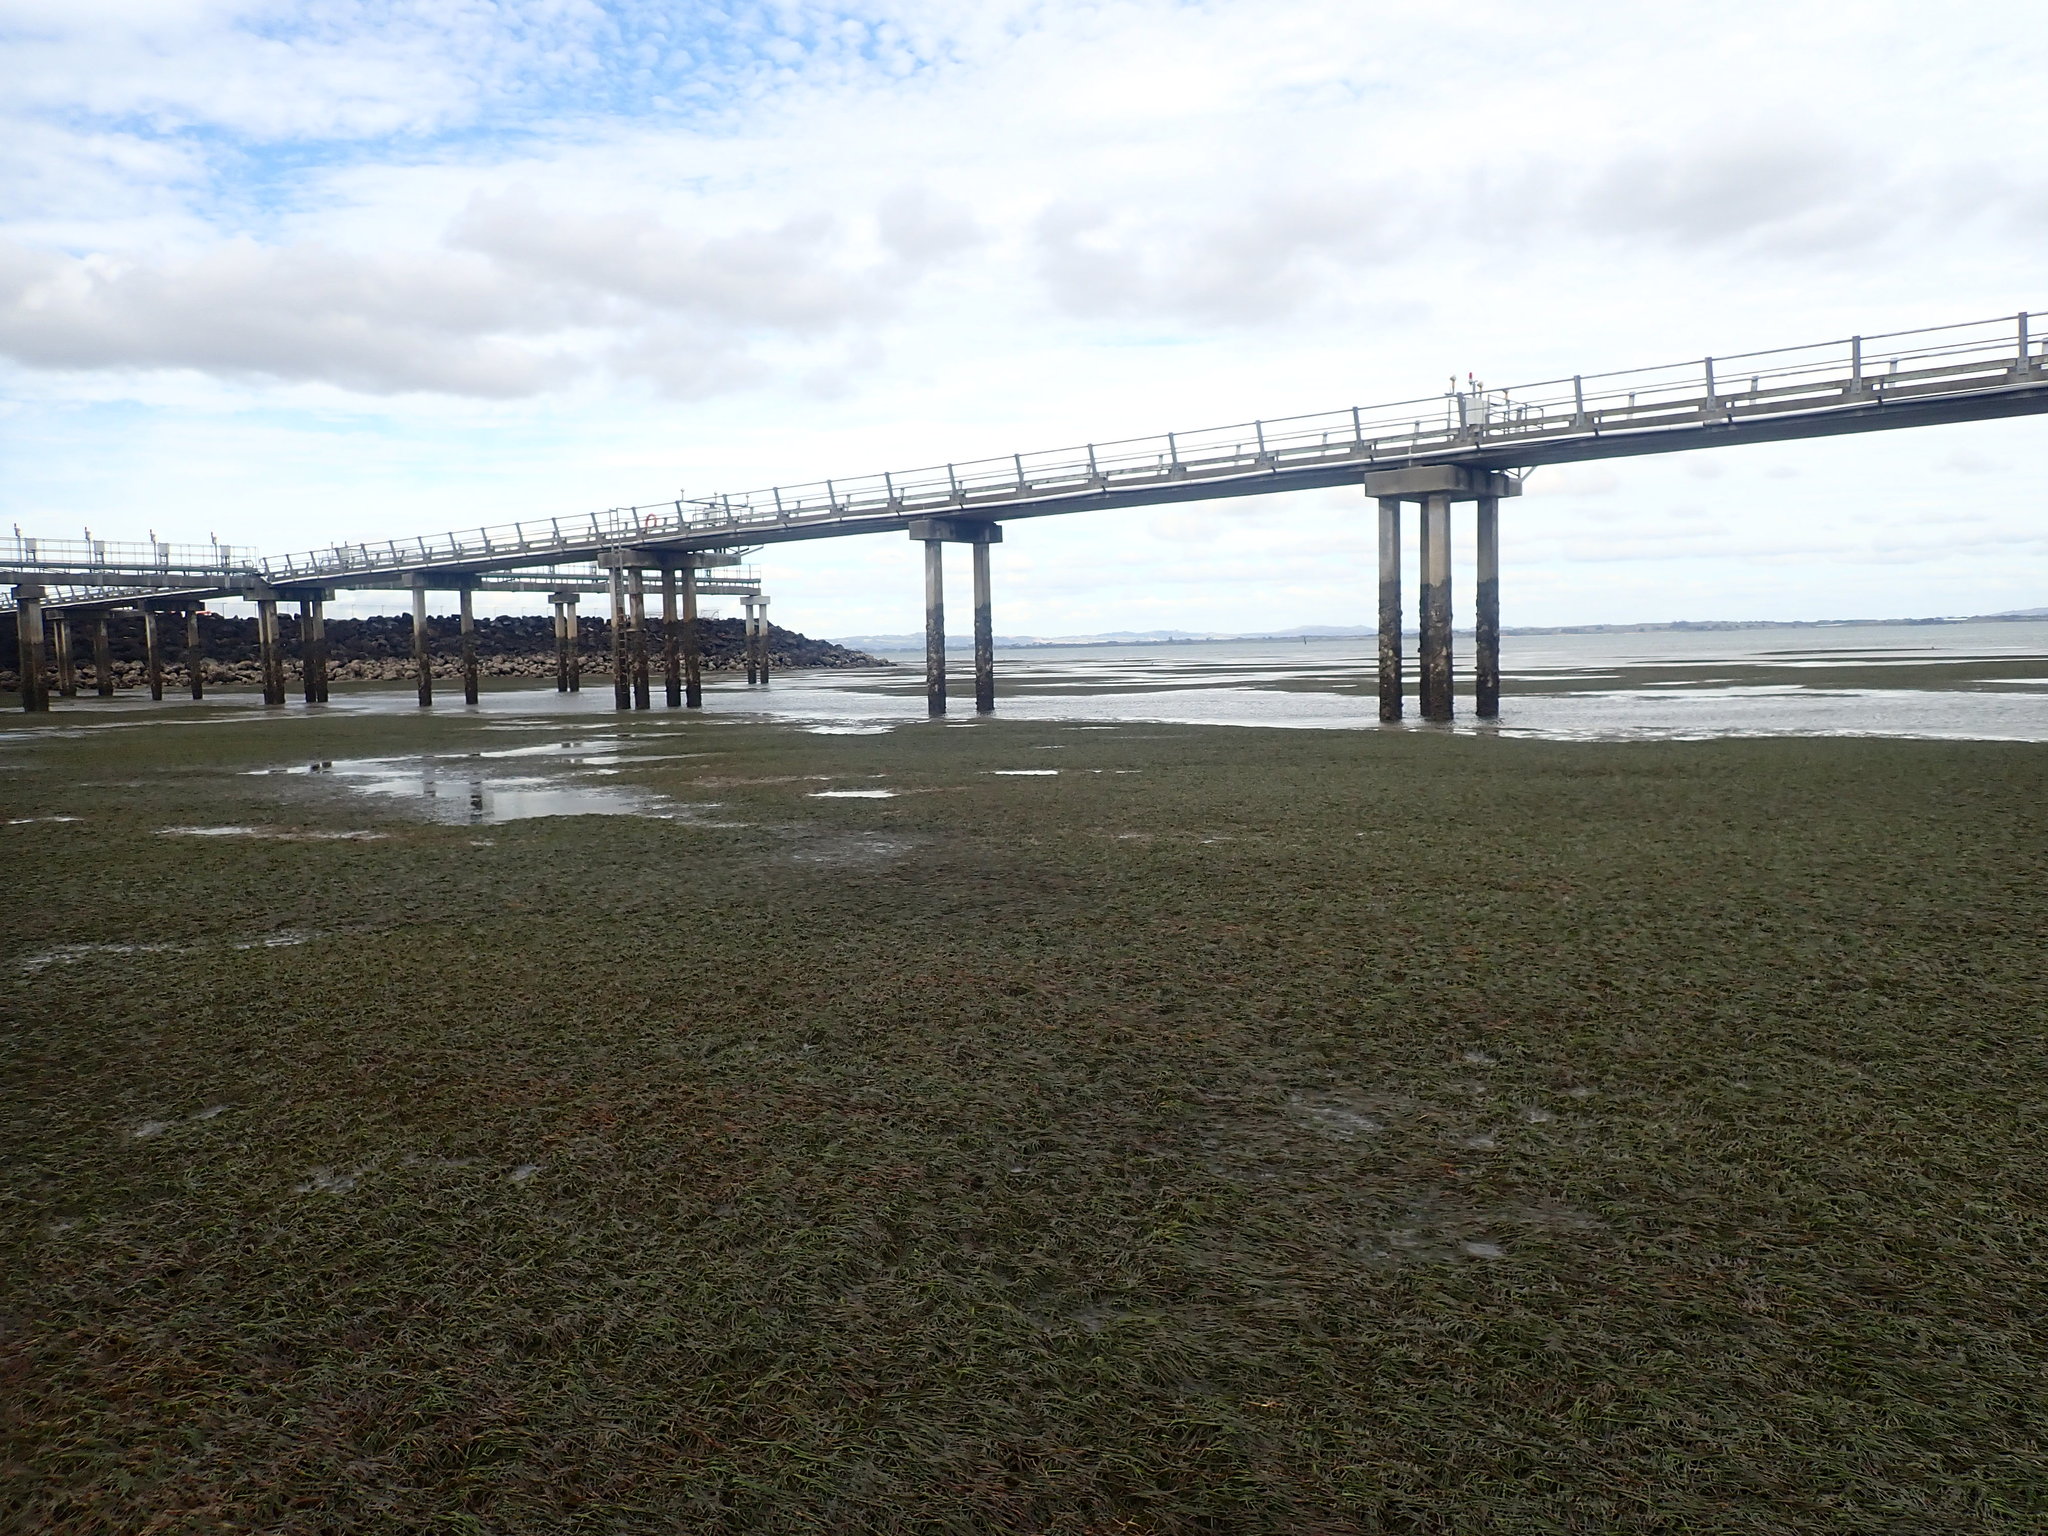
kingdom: Plantae
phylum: Tracheophyta
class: Liliopsida
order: Alismatales
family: Zosteraceae
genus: Zostera
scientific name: Zostera novazelandica
